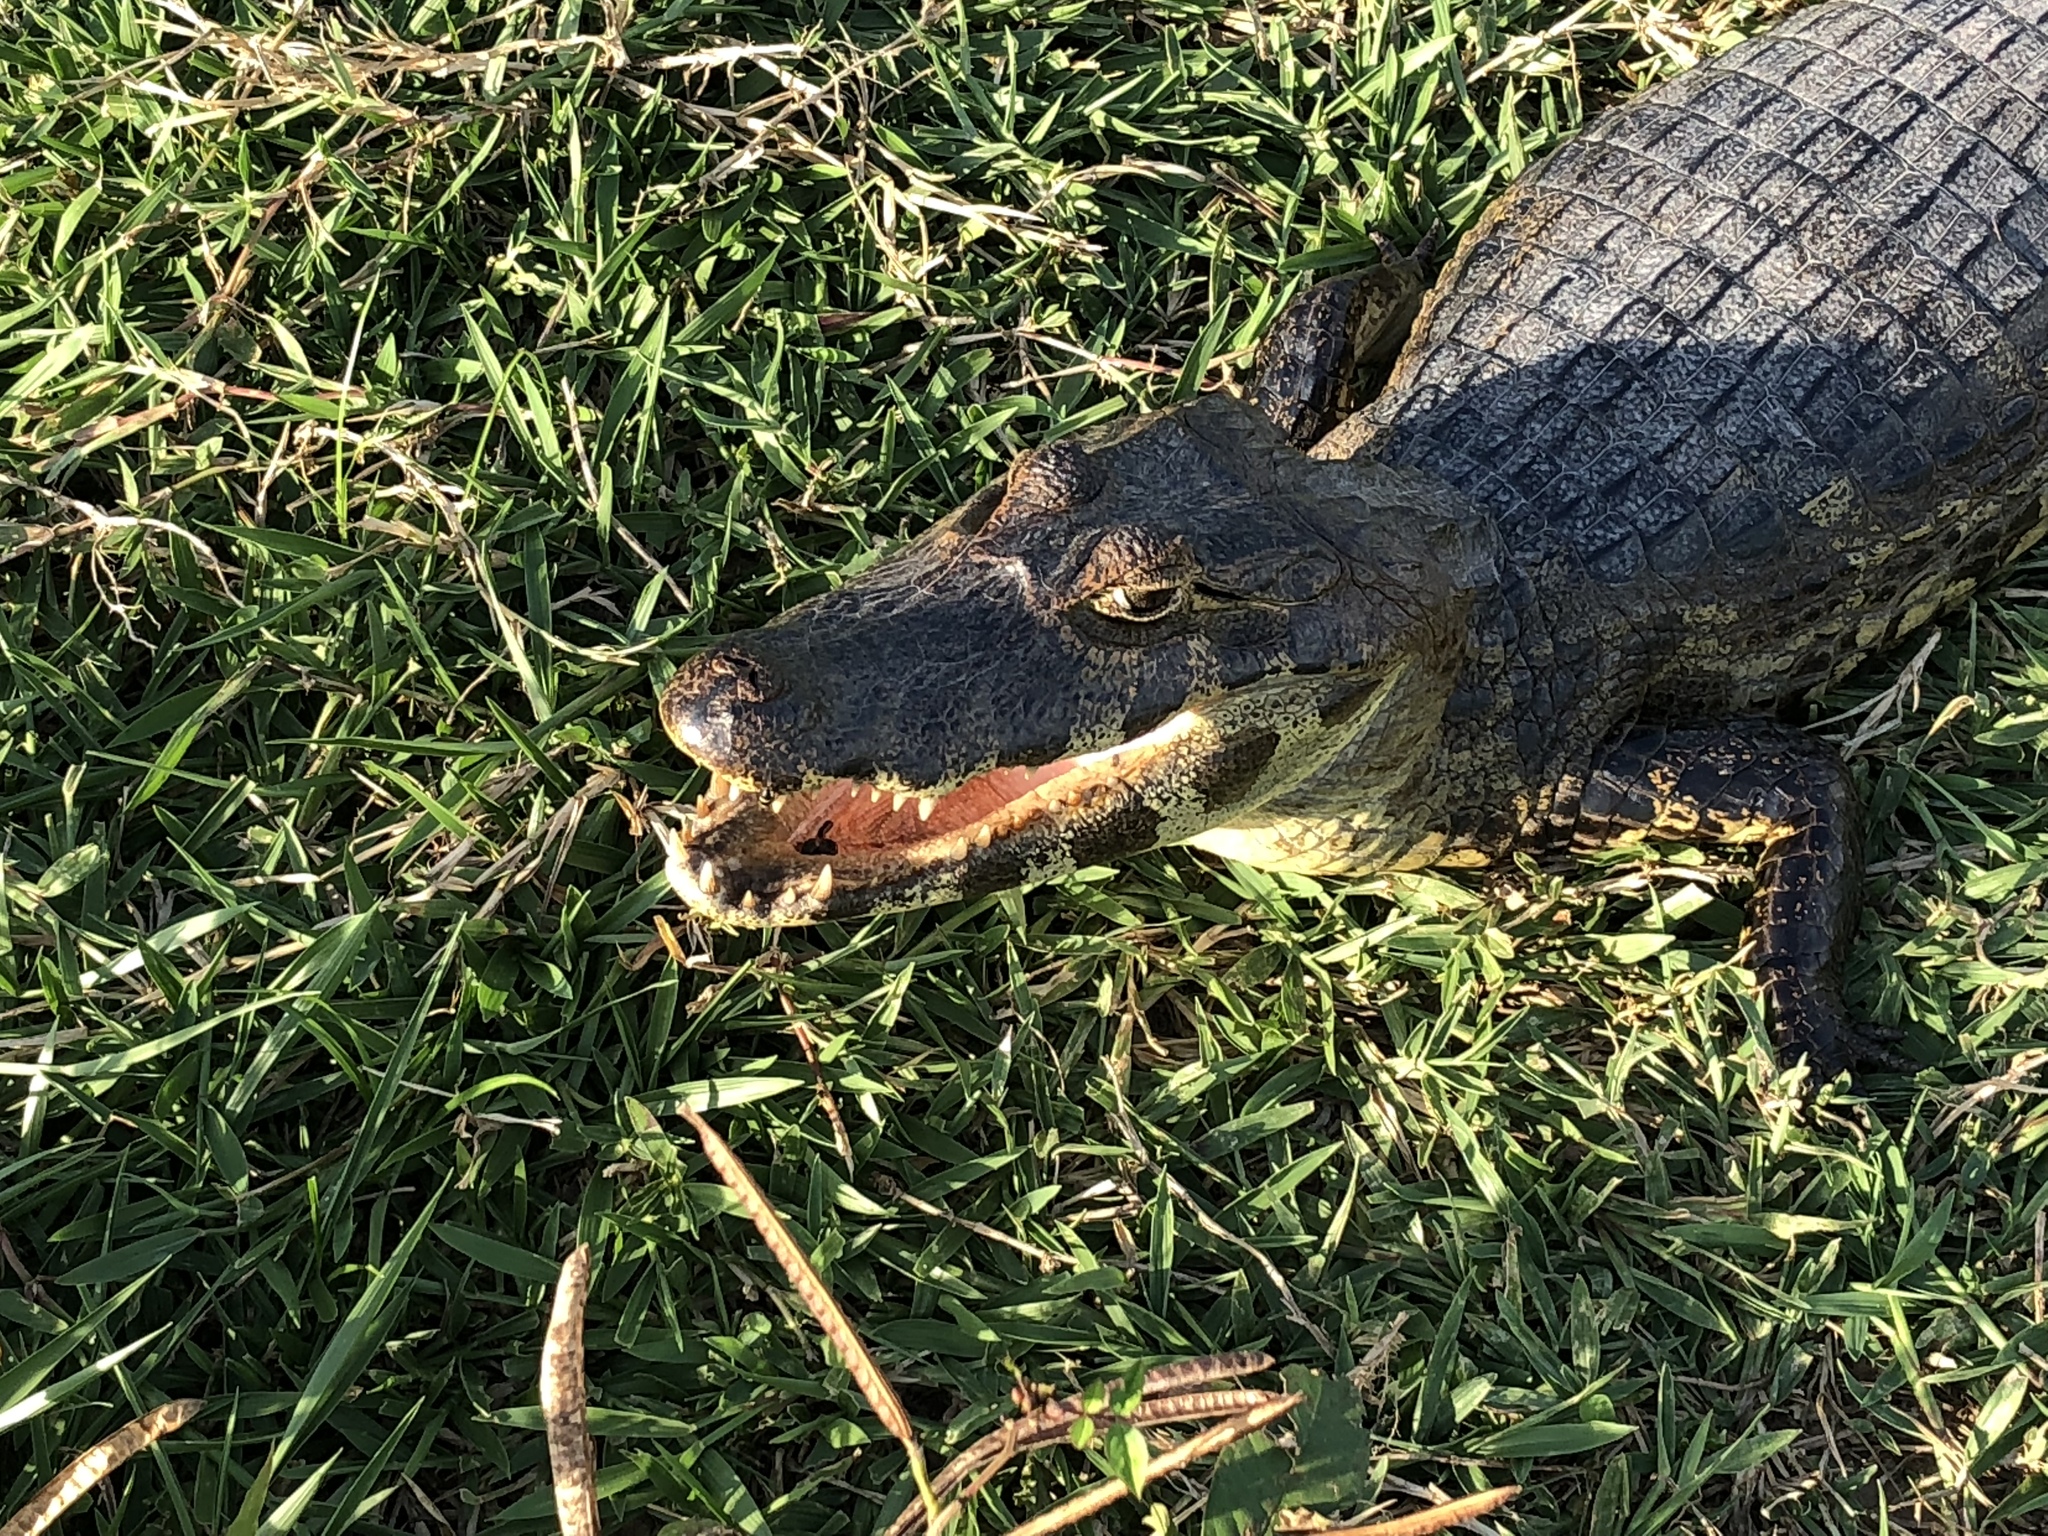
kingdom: Animalia
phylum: Chordata
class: Crocodylia
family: Alligatoridae
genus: Caiman
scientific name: Caiman yacare
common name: Yacare caiman
